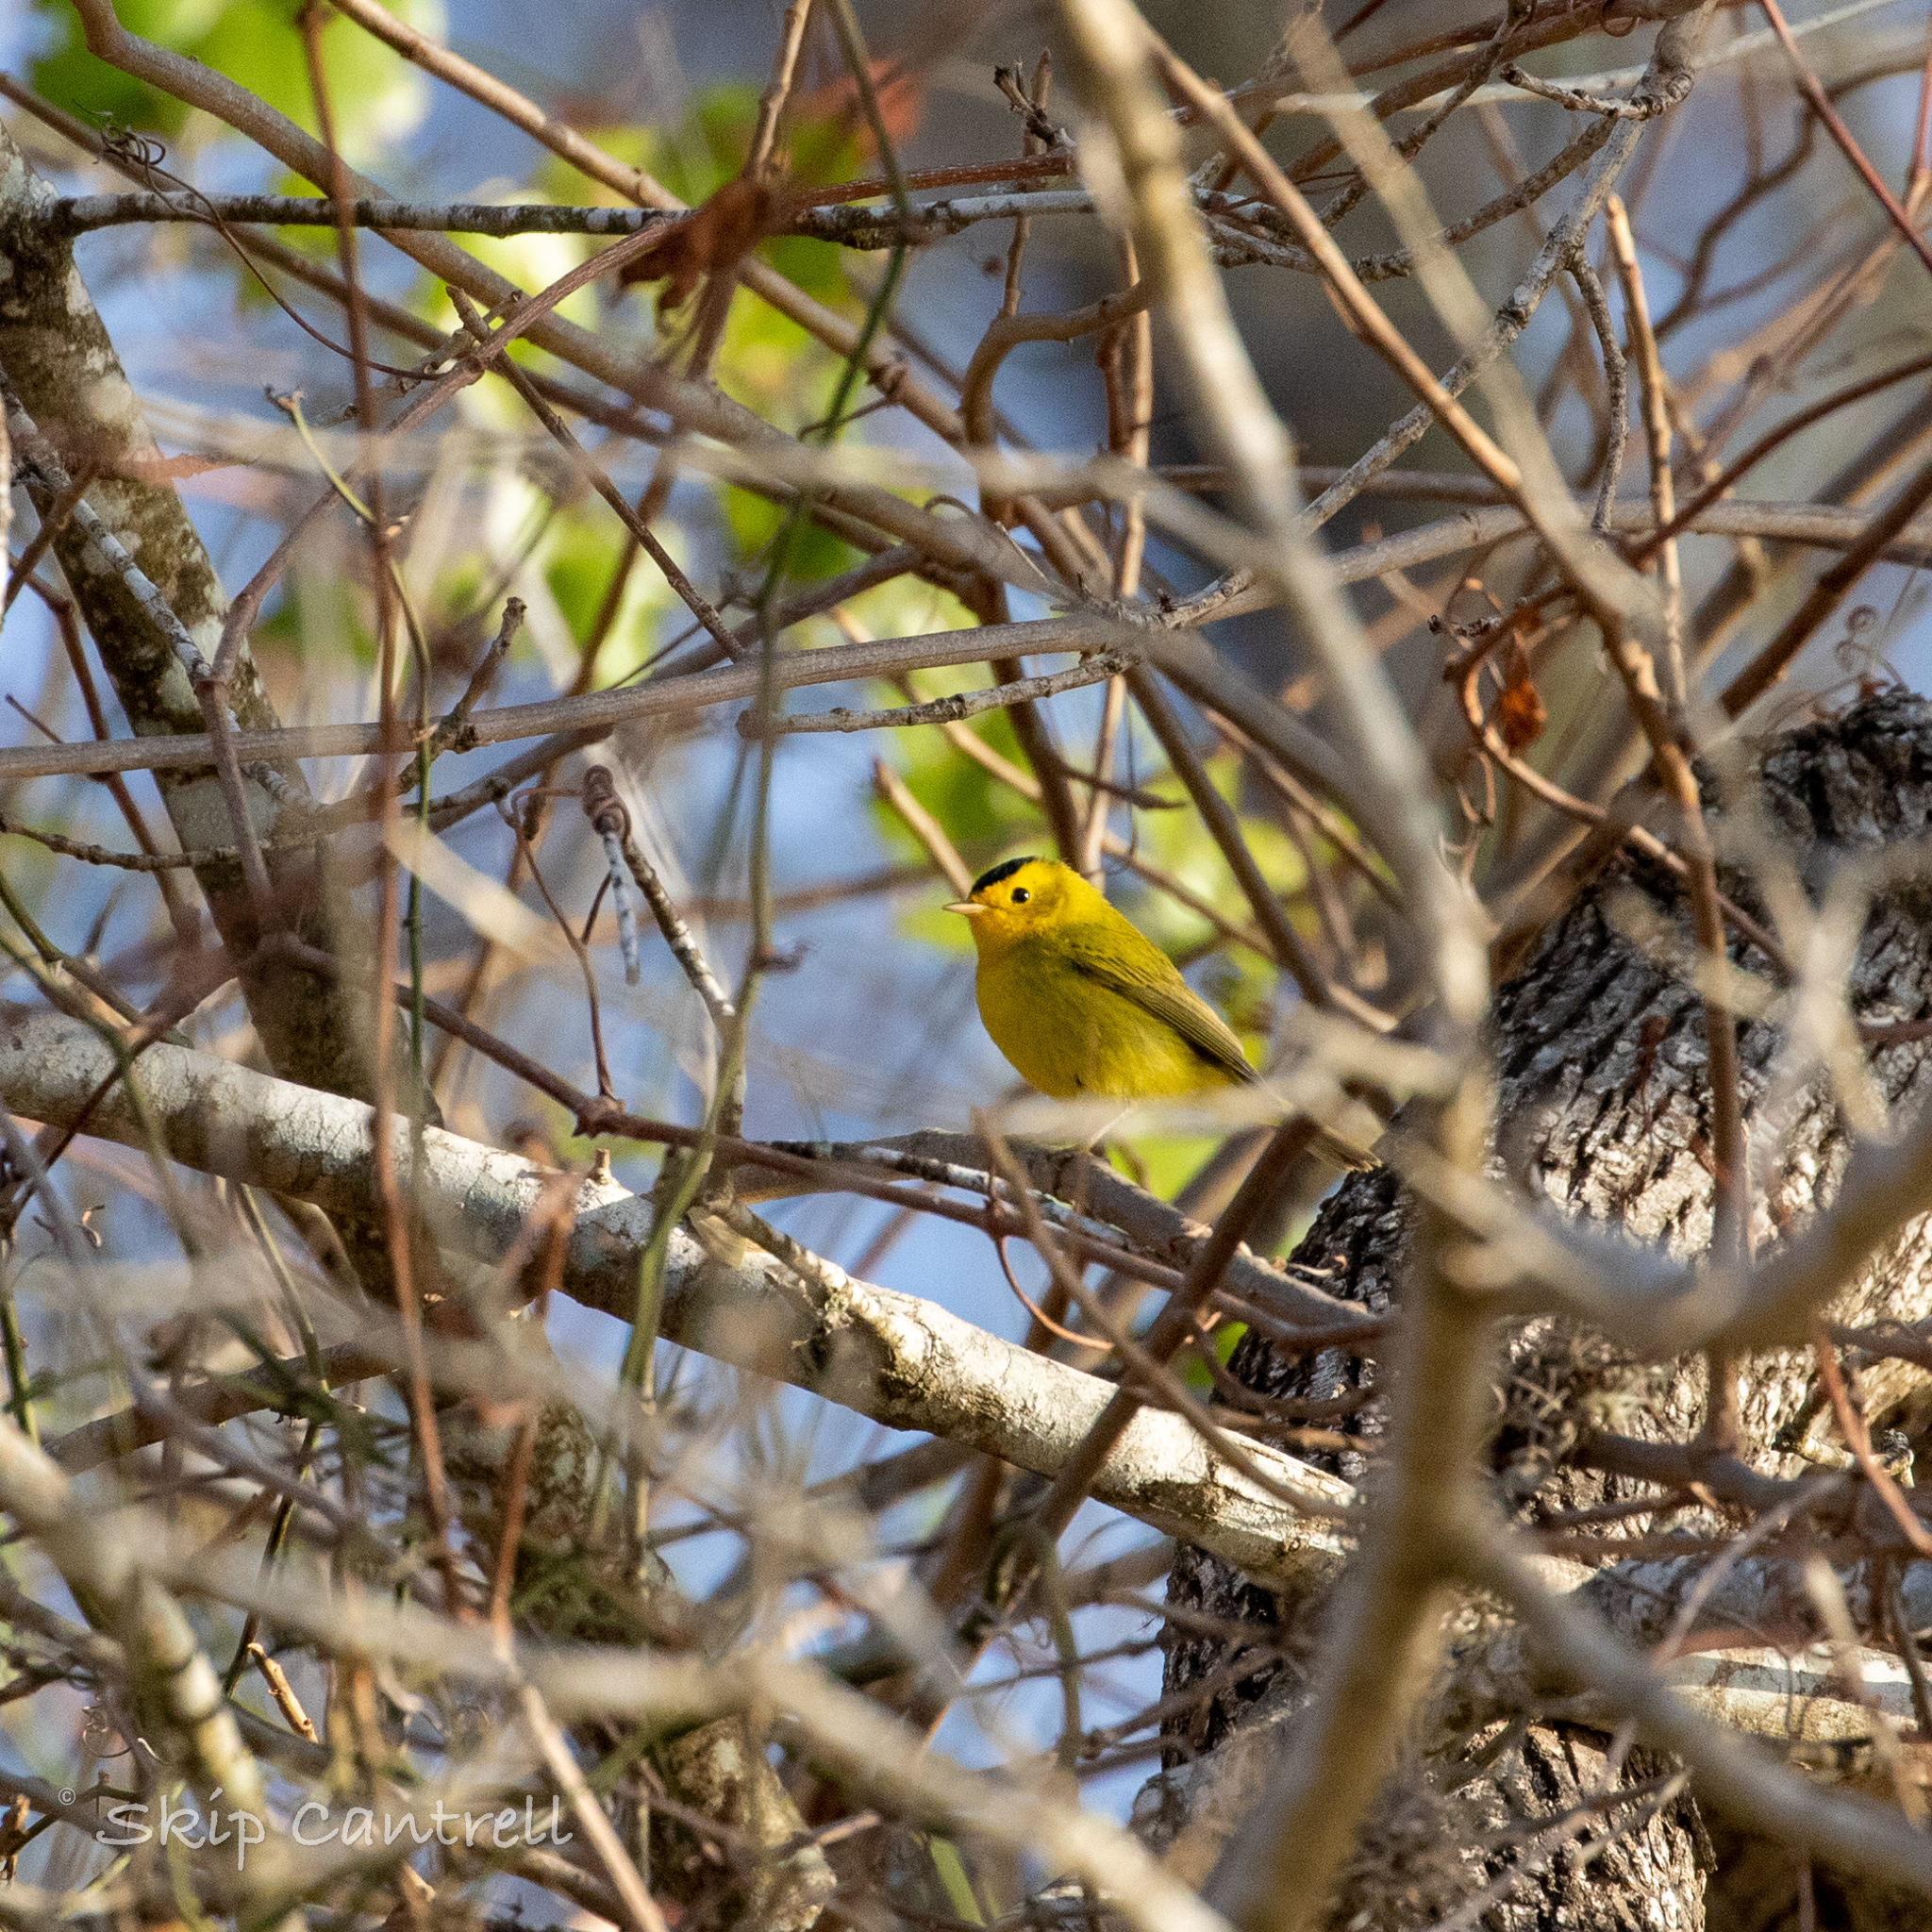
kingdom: Animalia
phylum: Chordata
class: Aves
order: Passeriformes
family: Parulidae
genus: Cardellina
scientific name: Cardellina pusilla
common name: Wilson's warbler
